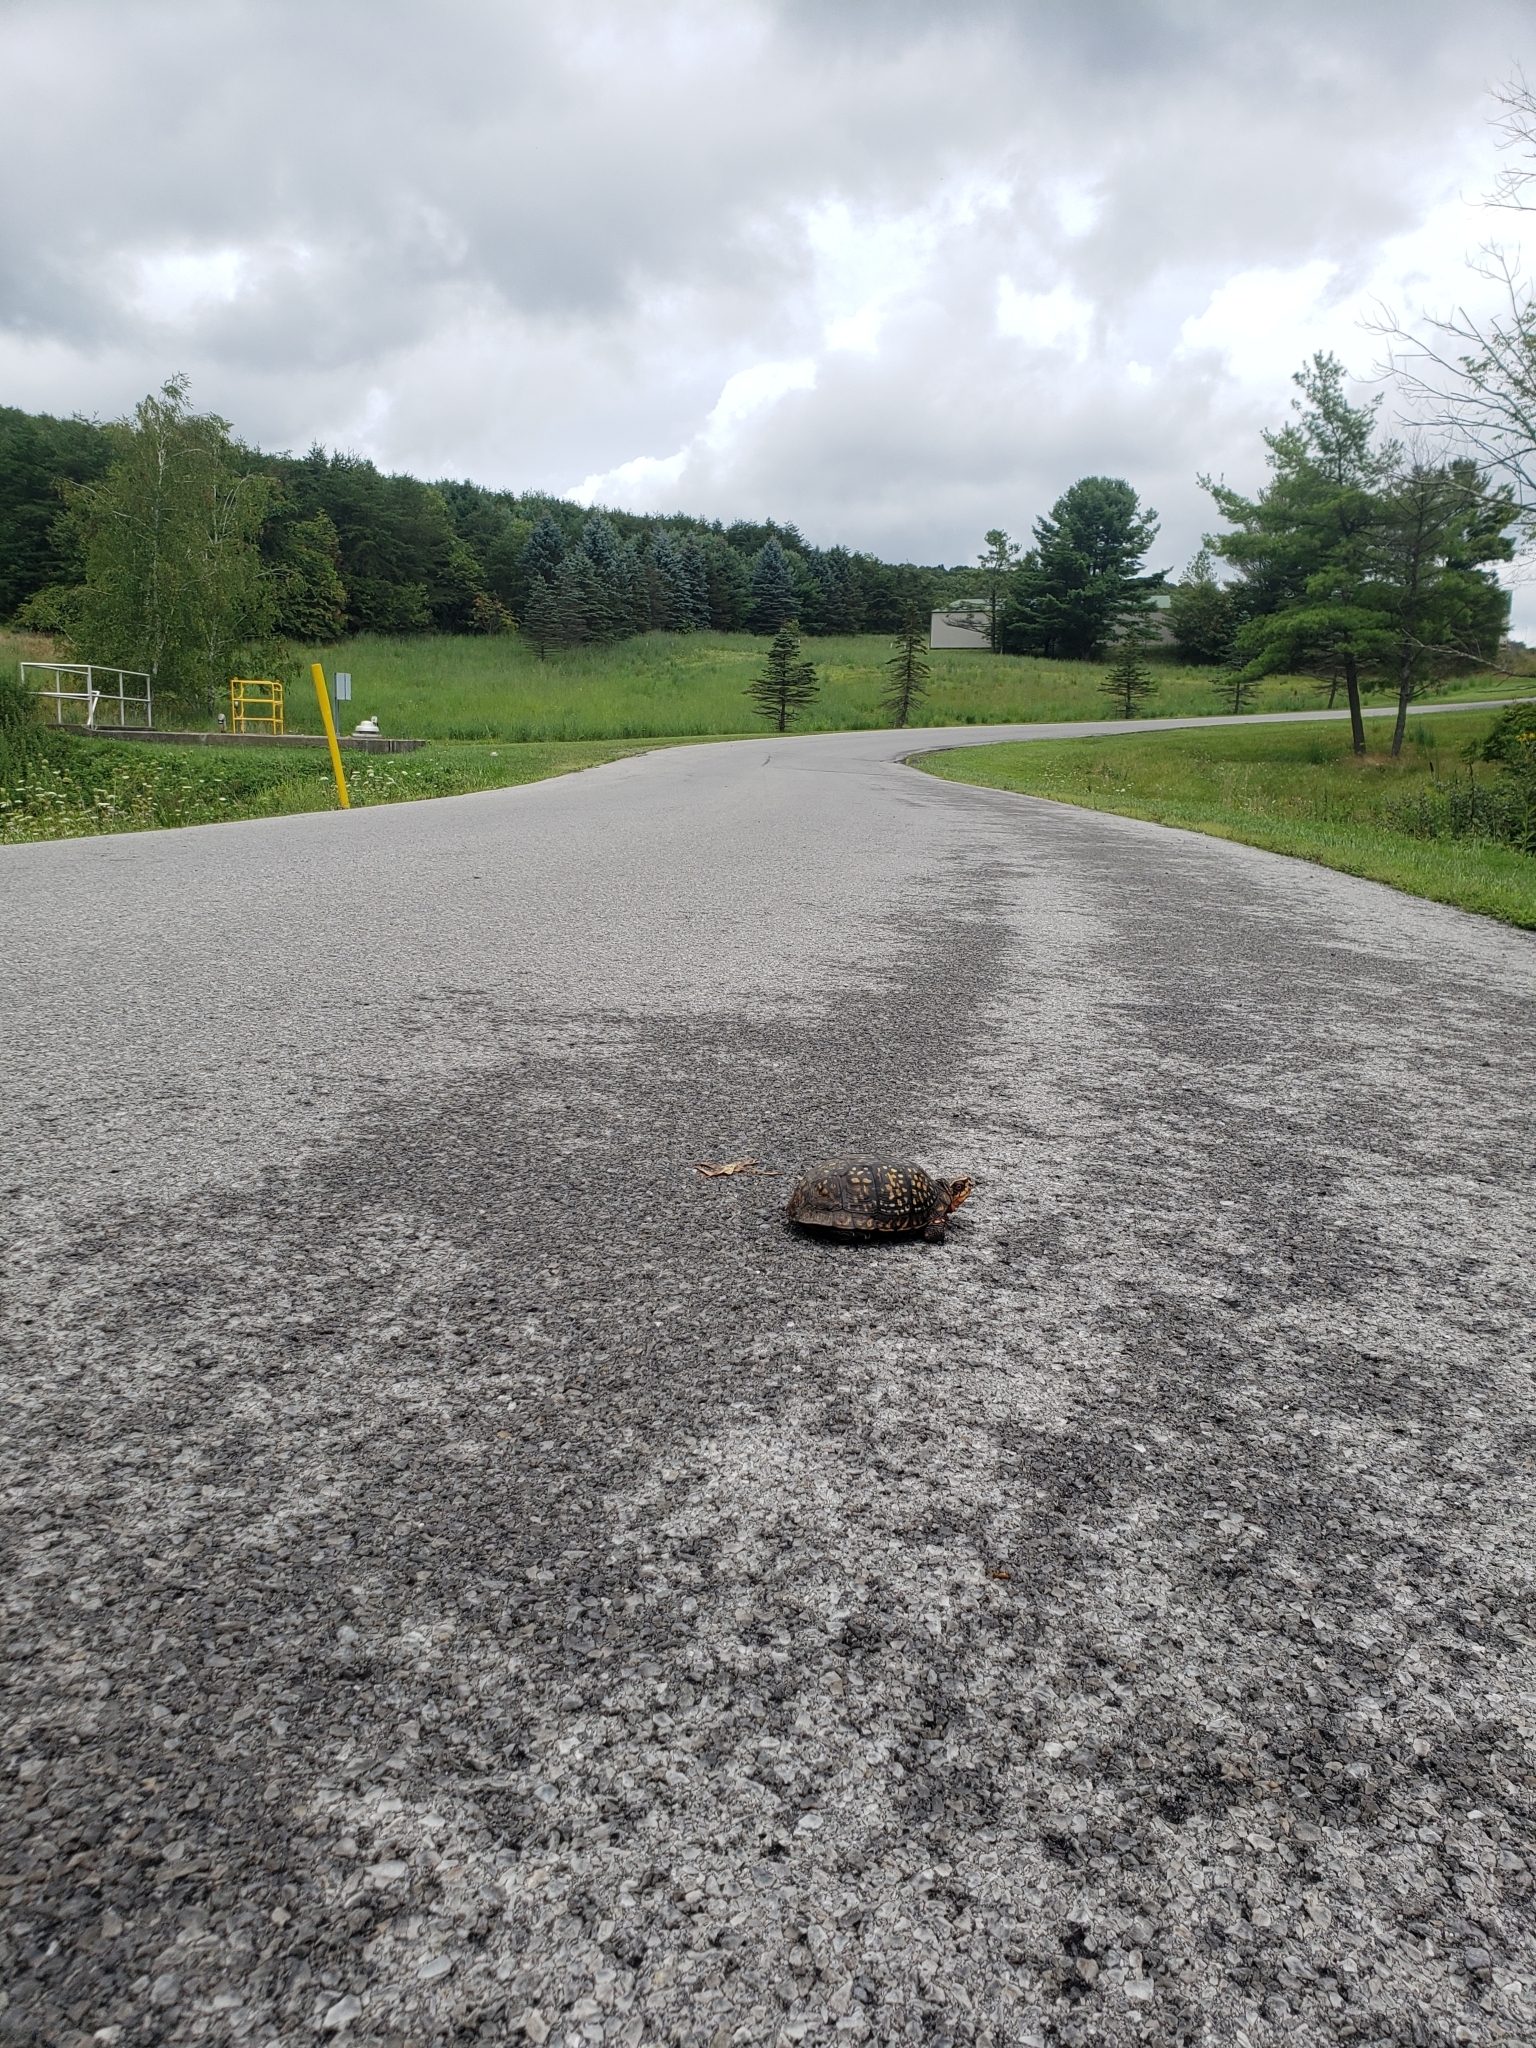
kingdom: Animalia
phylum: Chordata
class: Testudines
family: Emydidae
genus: Terrapene
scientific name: Terrapene carolina
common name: Common box turtle
